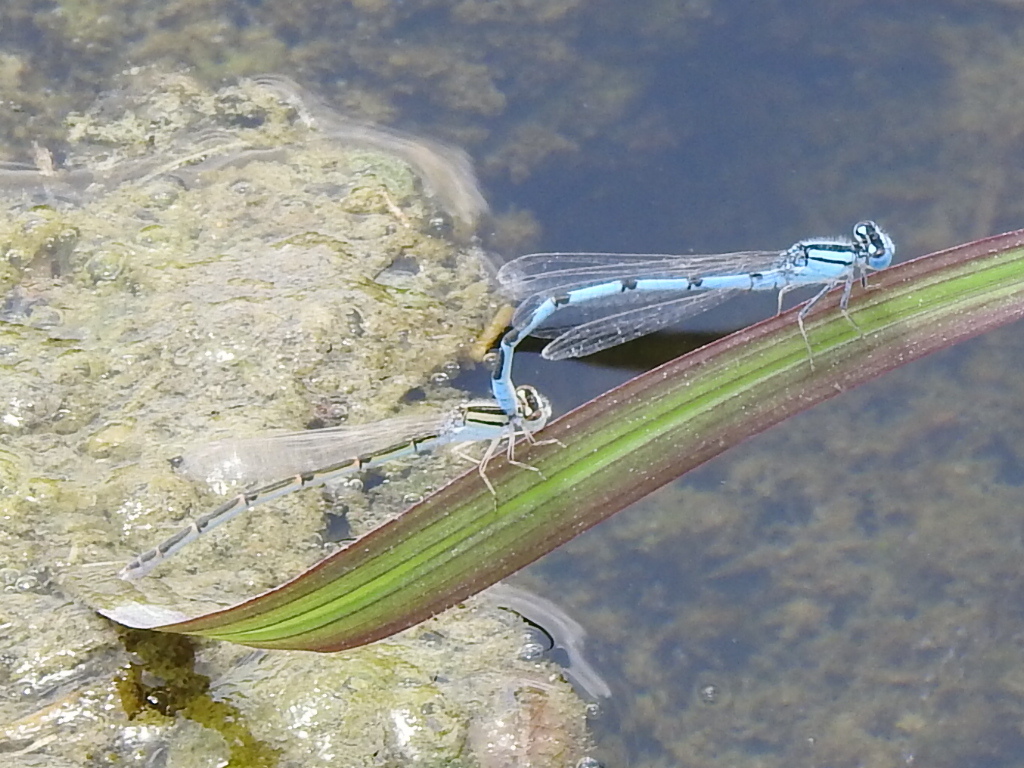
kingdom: Animalia
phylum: Arthropoda
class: Insecta
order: Odonata
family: Coenagrionidae
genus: Enallagma
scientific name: Enallagma civile
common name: Damselfly
